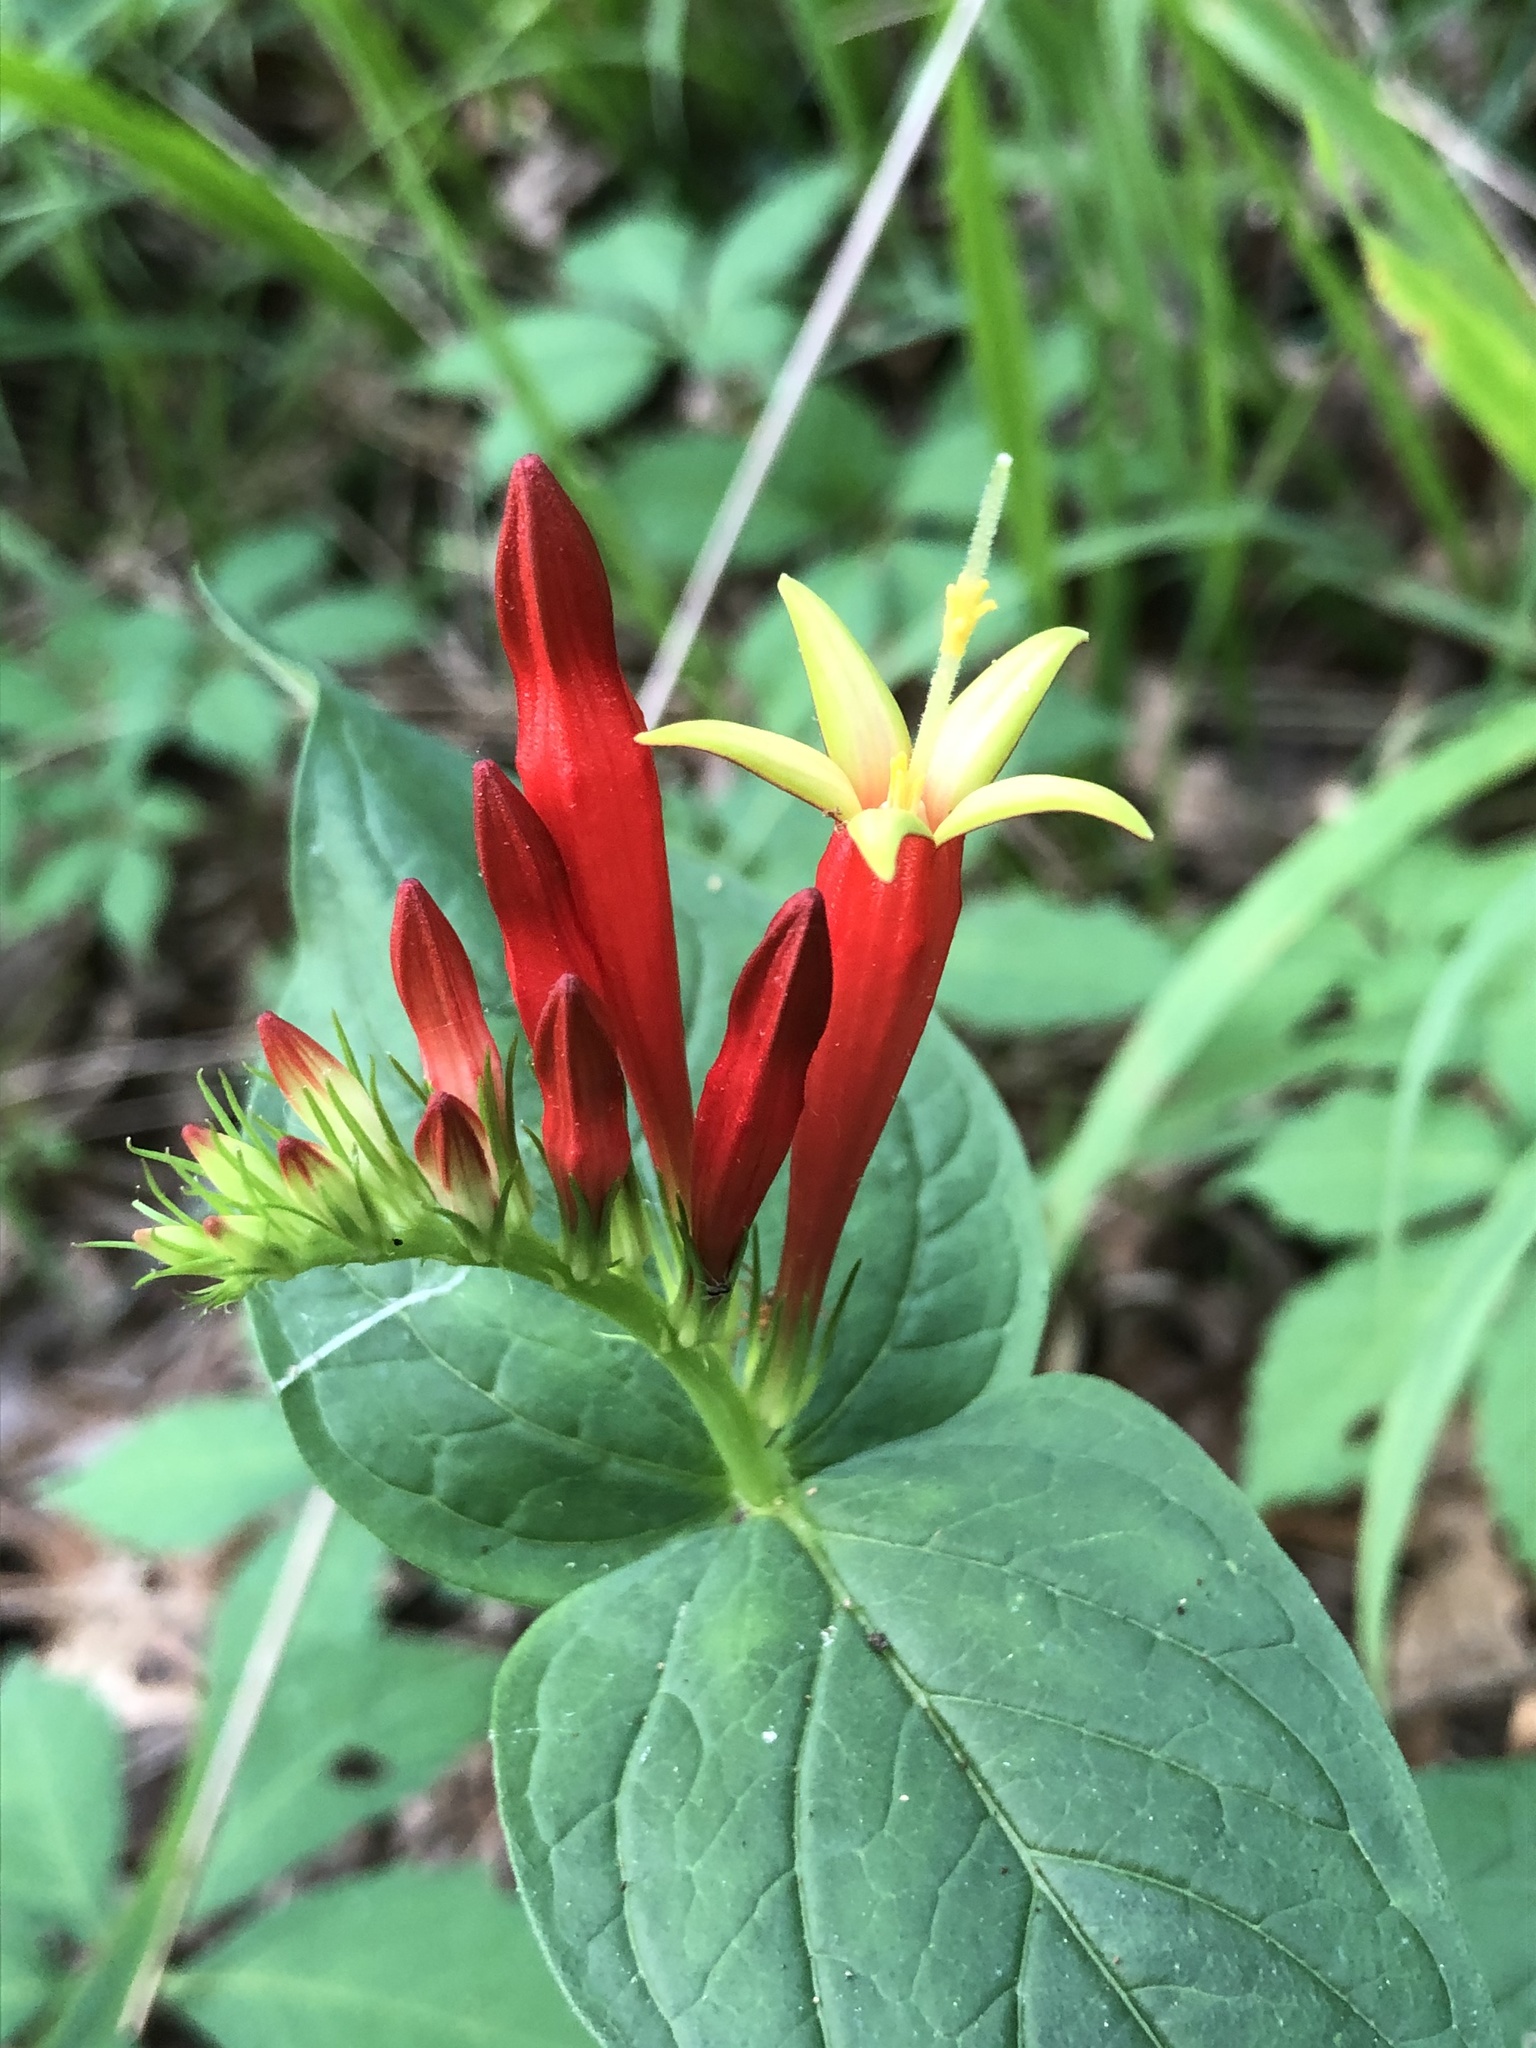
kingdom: Plantae
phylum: Tracheophyta
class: Magnoliopsida
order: Gentianales
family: Loganiaceae
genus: Spigelia
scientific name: Spigelia marilandica
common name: Indian-pink
